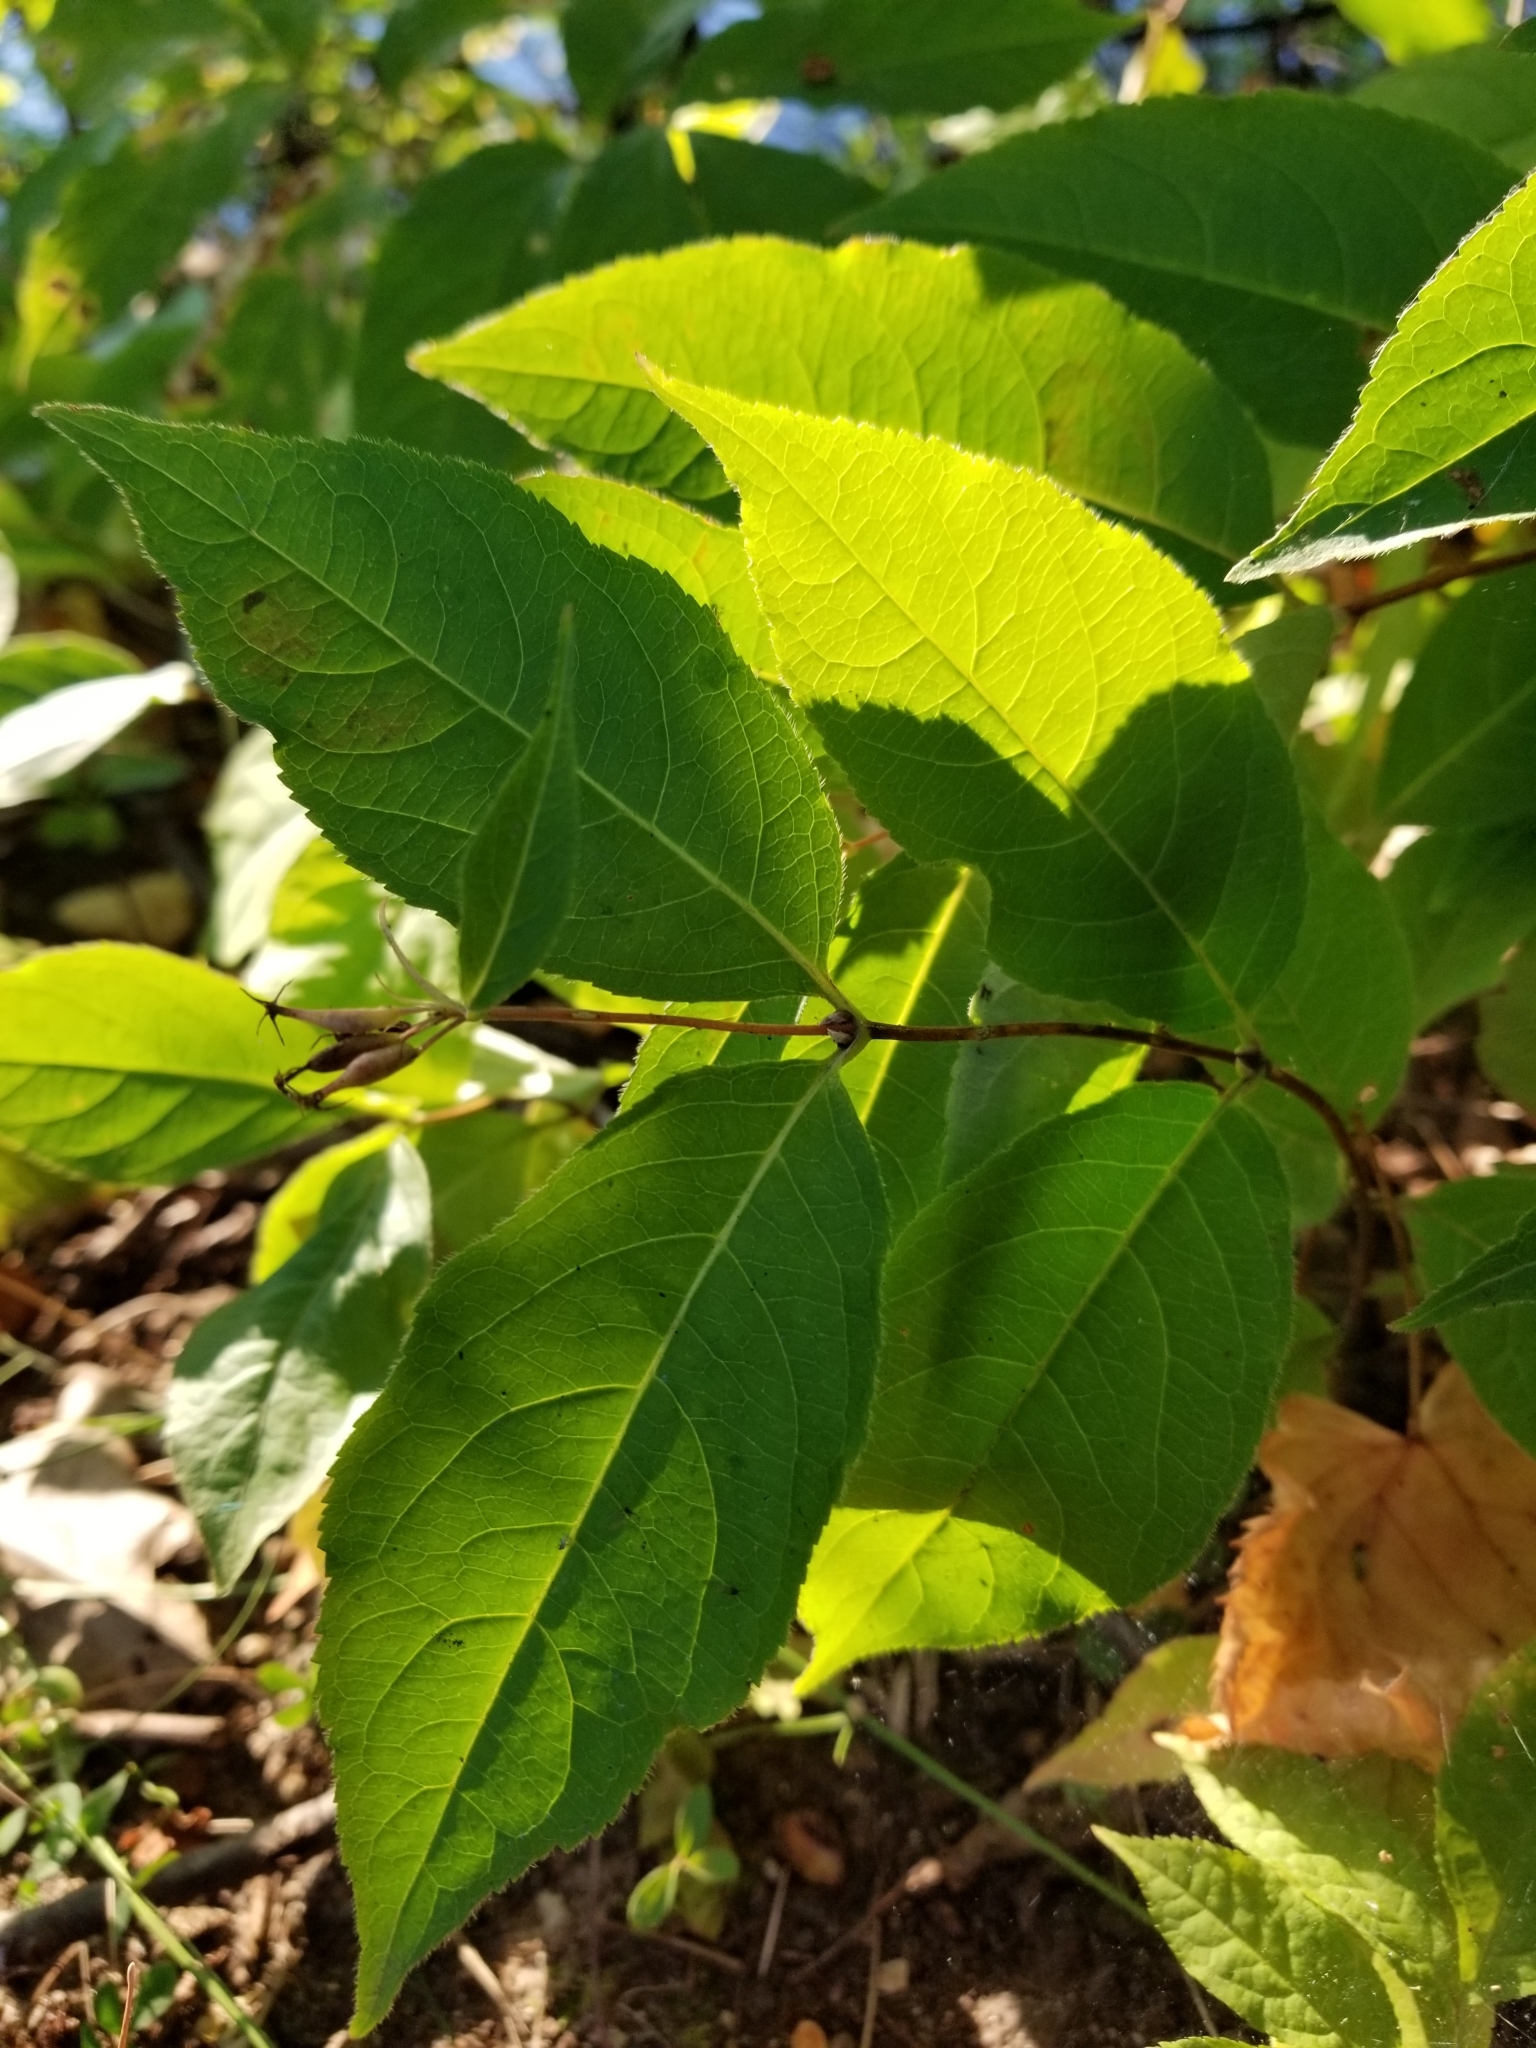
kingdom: Plantae
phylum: Tracheophyta
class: Magnoliopsida
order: Dipsacales
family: Caprifoliaceae
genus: Diervilla
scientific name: Diervilla lonicera
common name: Bush-honeysuckle
